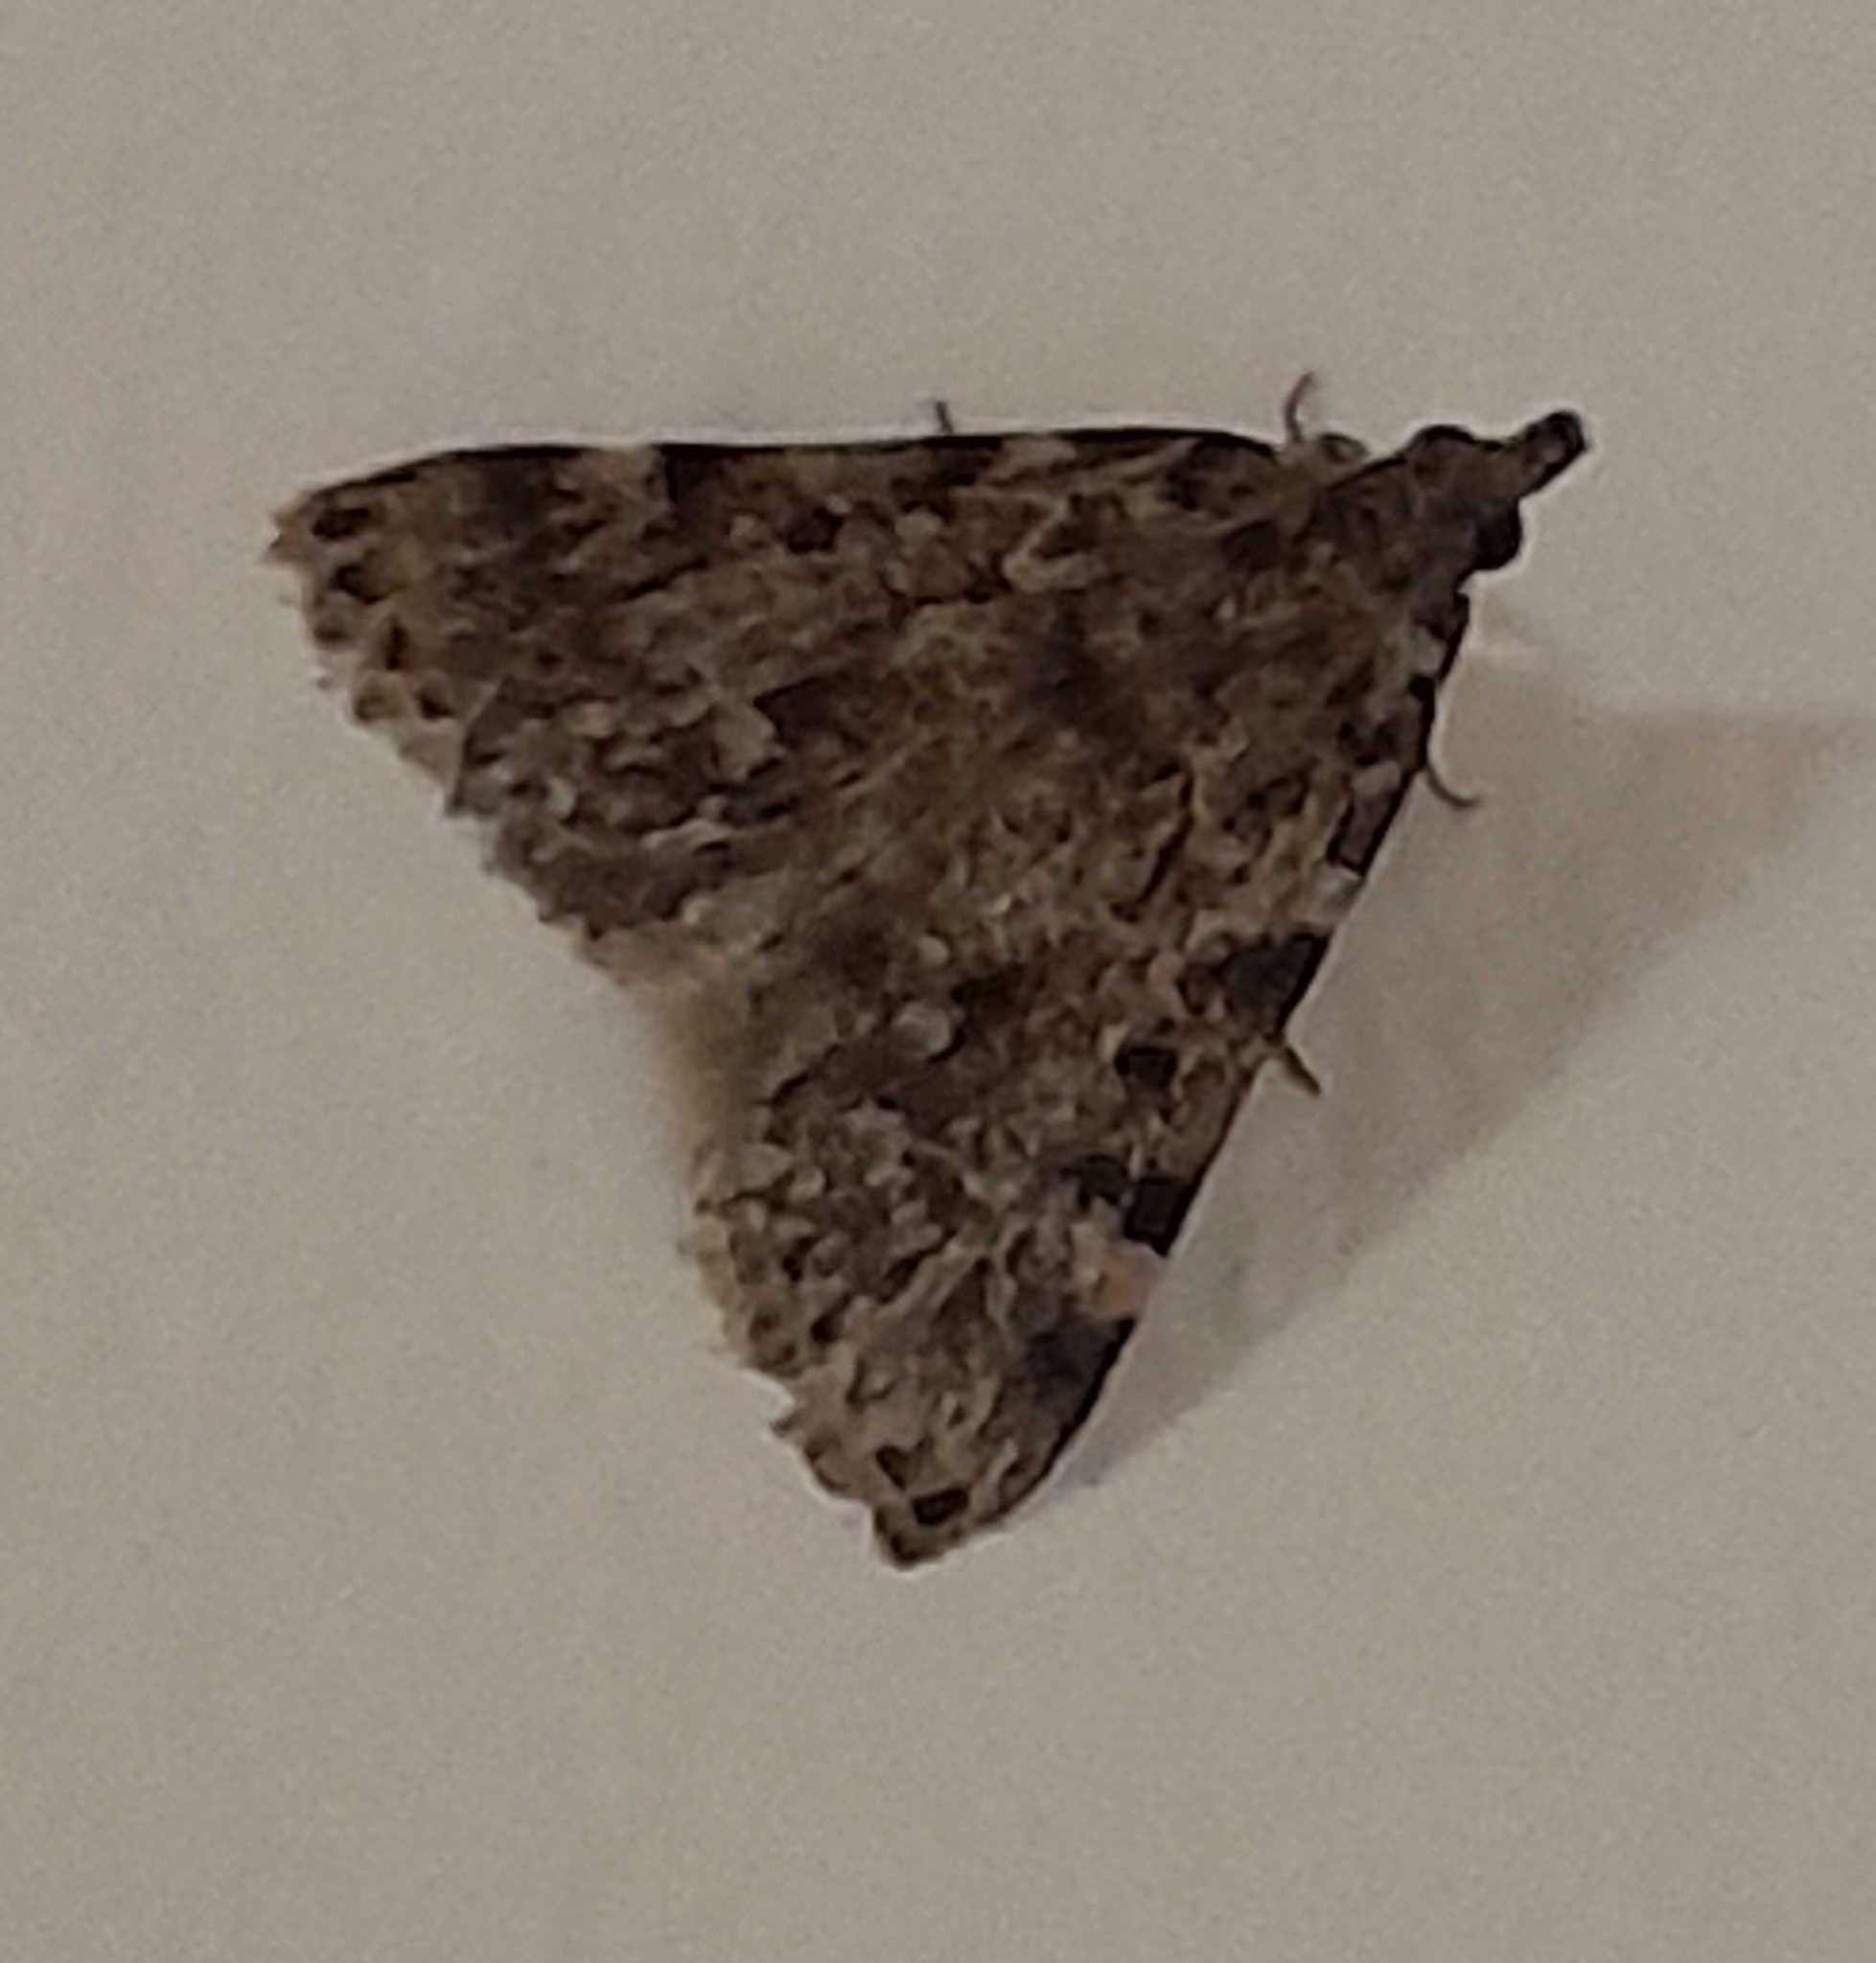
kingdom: Animalia
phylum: Arthropoda
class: Insecta
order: Lepidoptera
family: Pyralidae
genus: Aglossa
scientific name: Aglossa pinguinalis
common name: Large tabby
